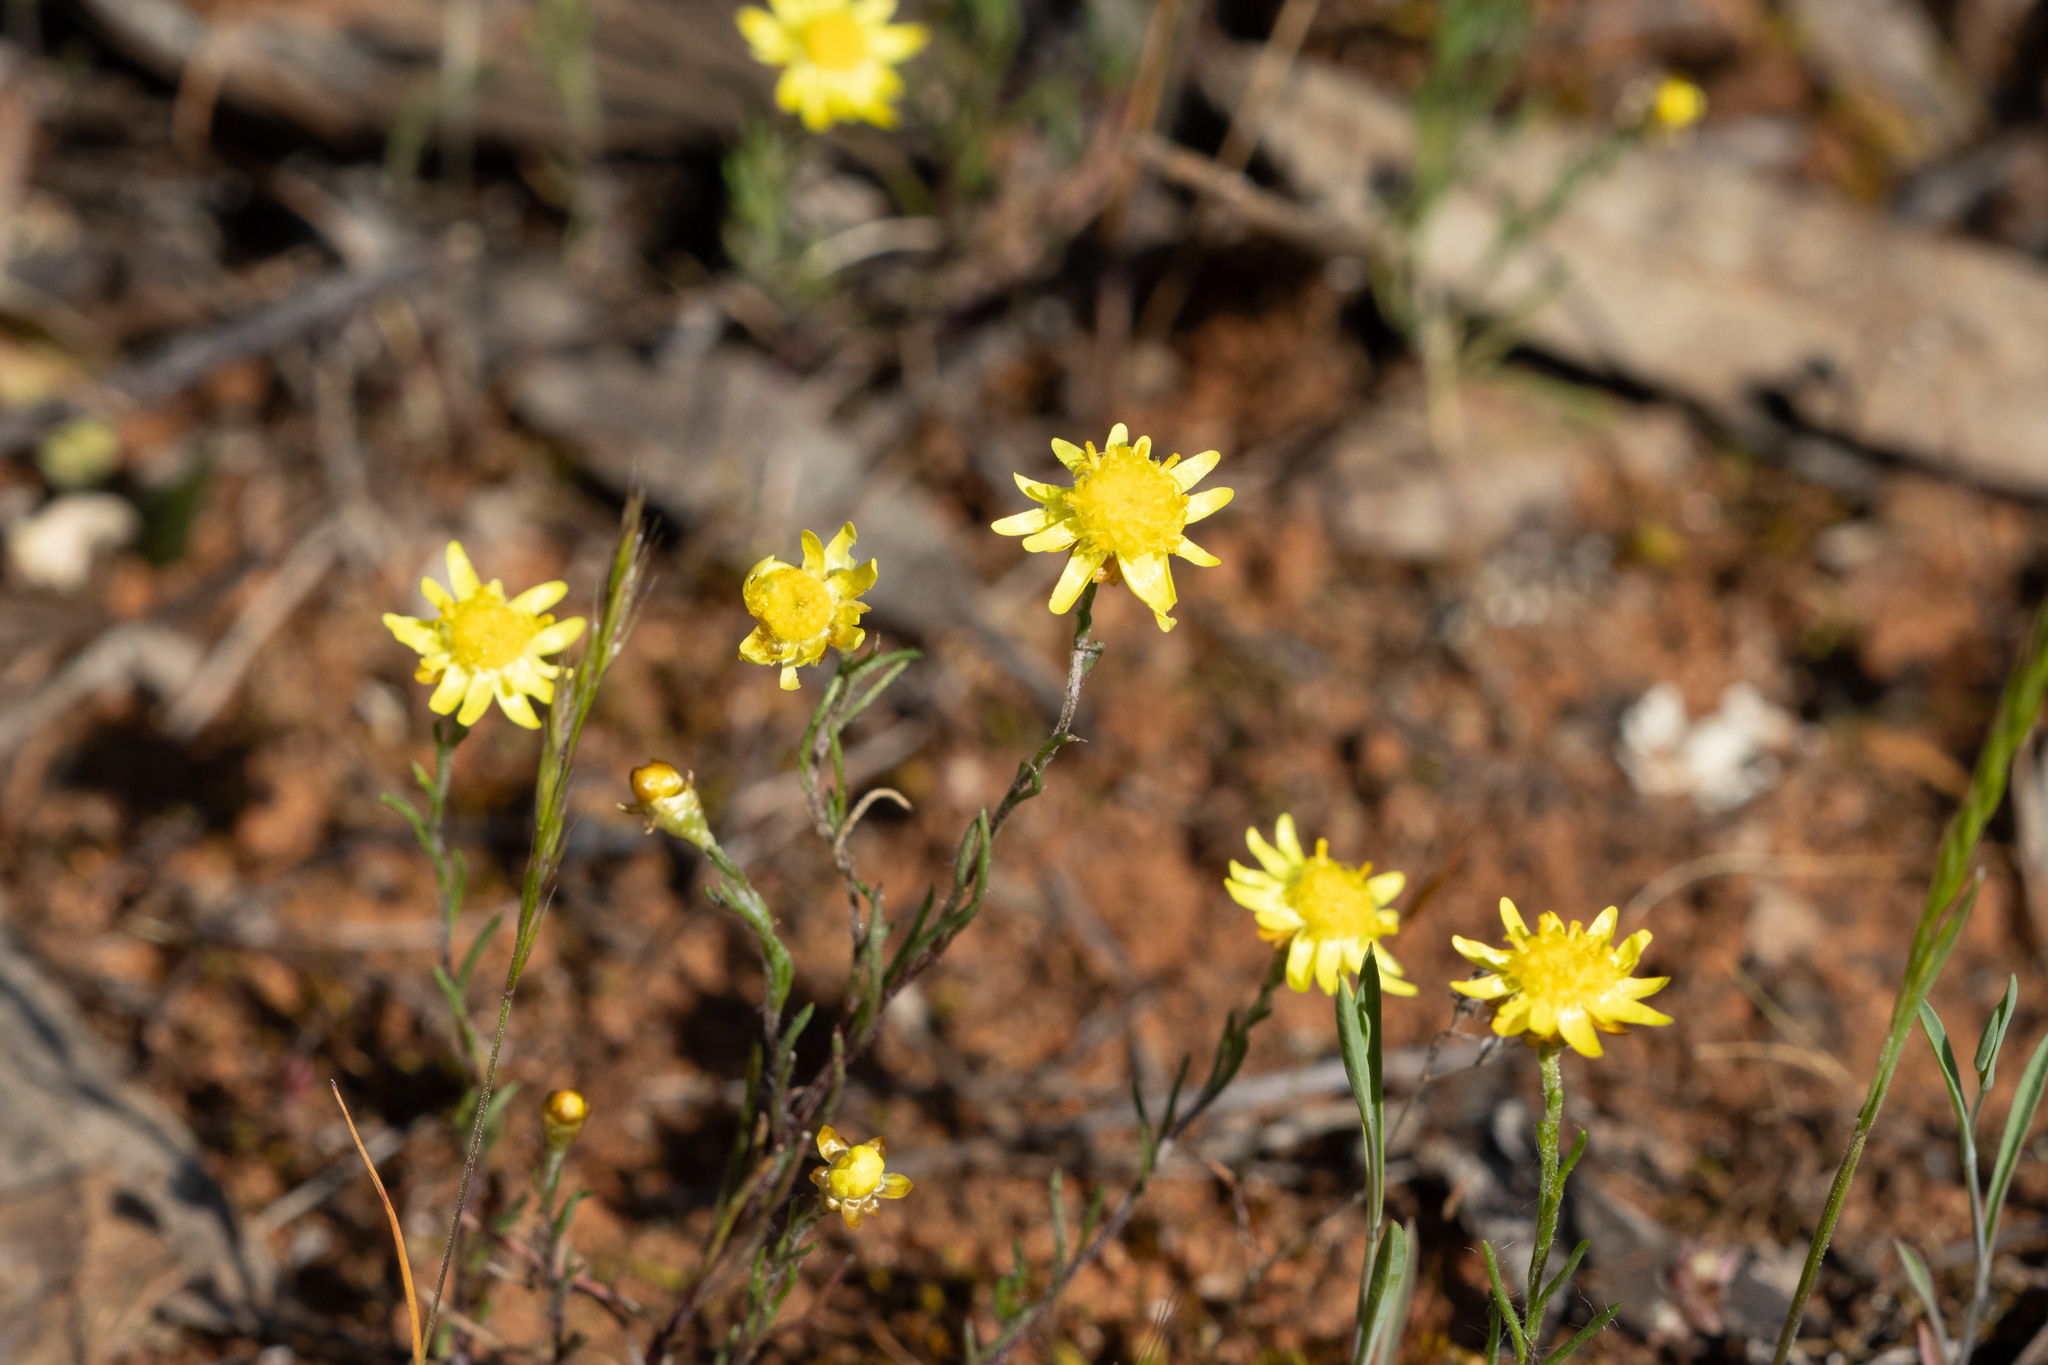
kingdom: Plantae
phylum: Tracheophyta
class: Magnoliopsida
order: Asterales
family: Asteraceae
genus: Hyalosperma
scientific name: Hyalosperma semisterile
